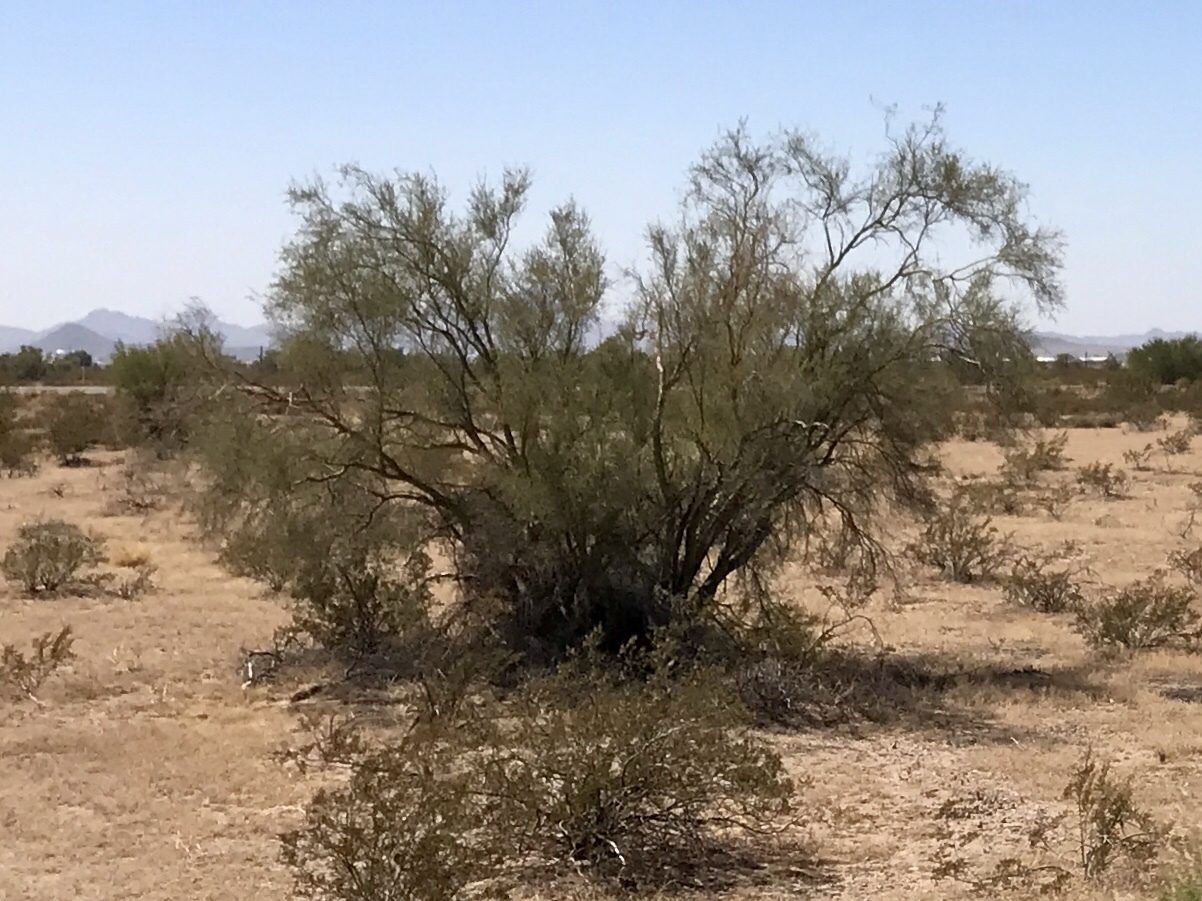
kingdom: Plantae
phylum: Tracheophyta
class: Magnoliopsida
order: Fabales
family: Fabaceae
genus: Parkinsonia
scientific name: Parkinsonia florida
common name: Blue paloverde
